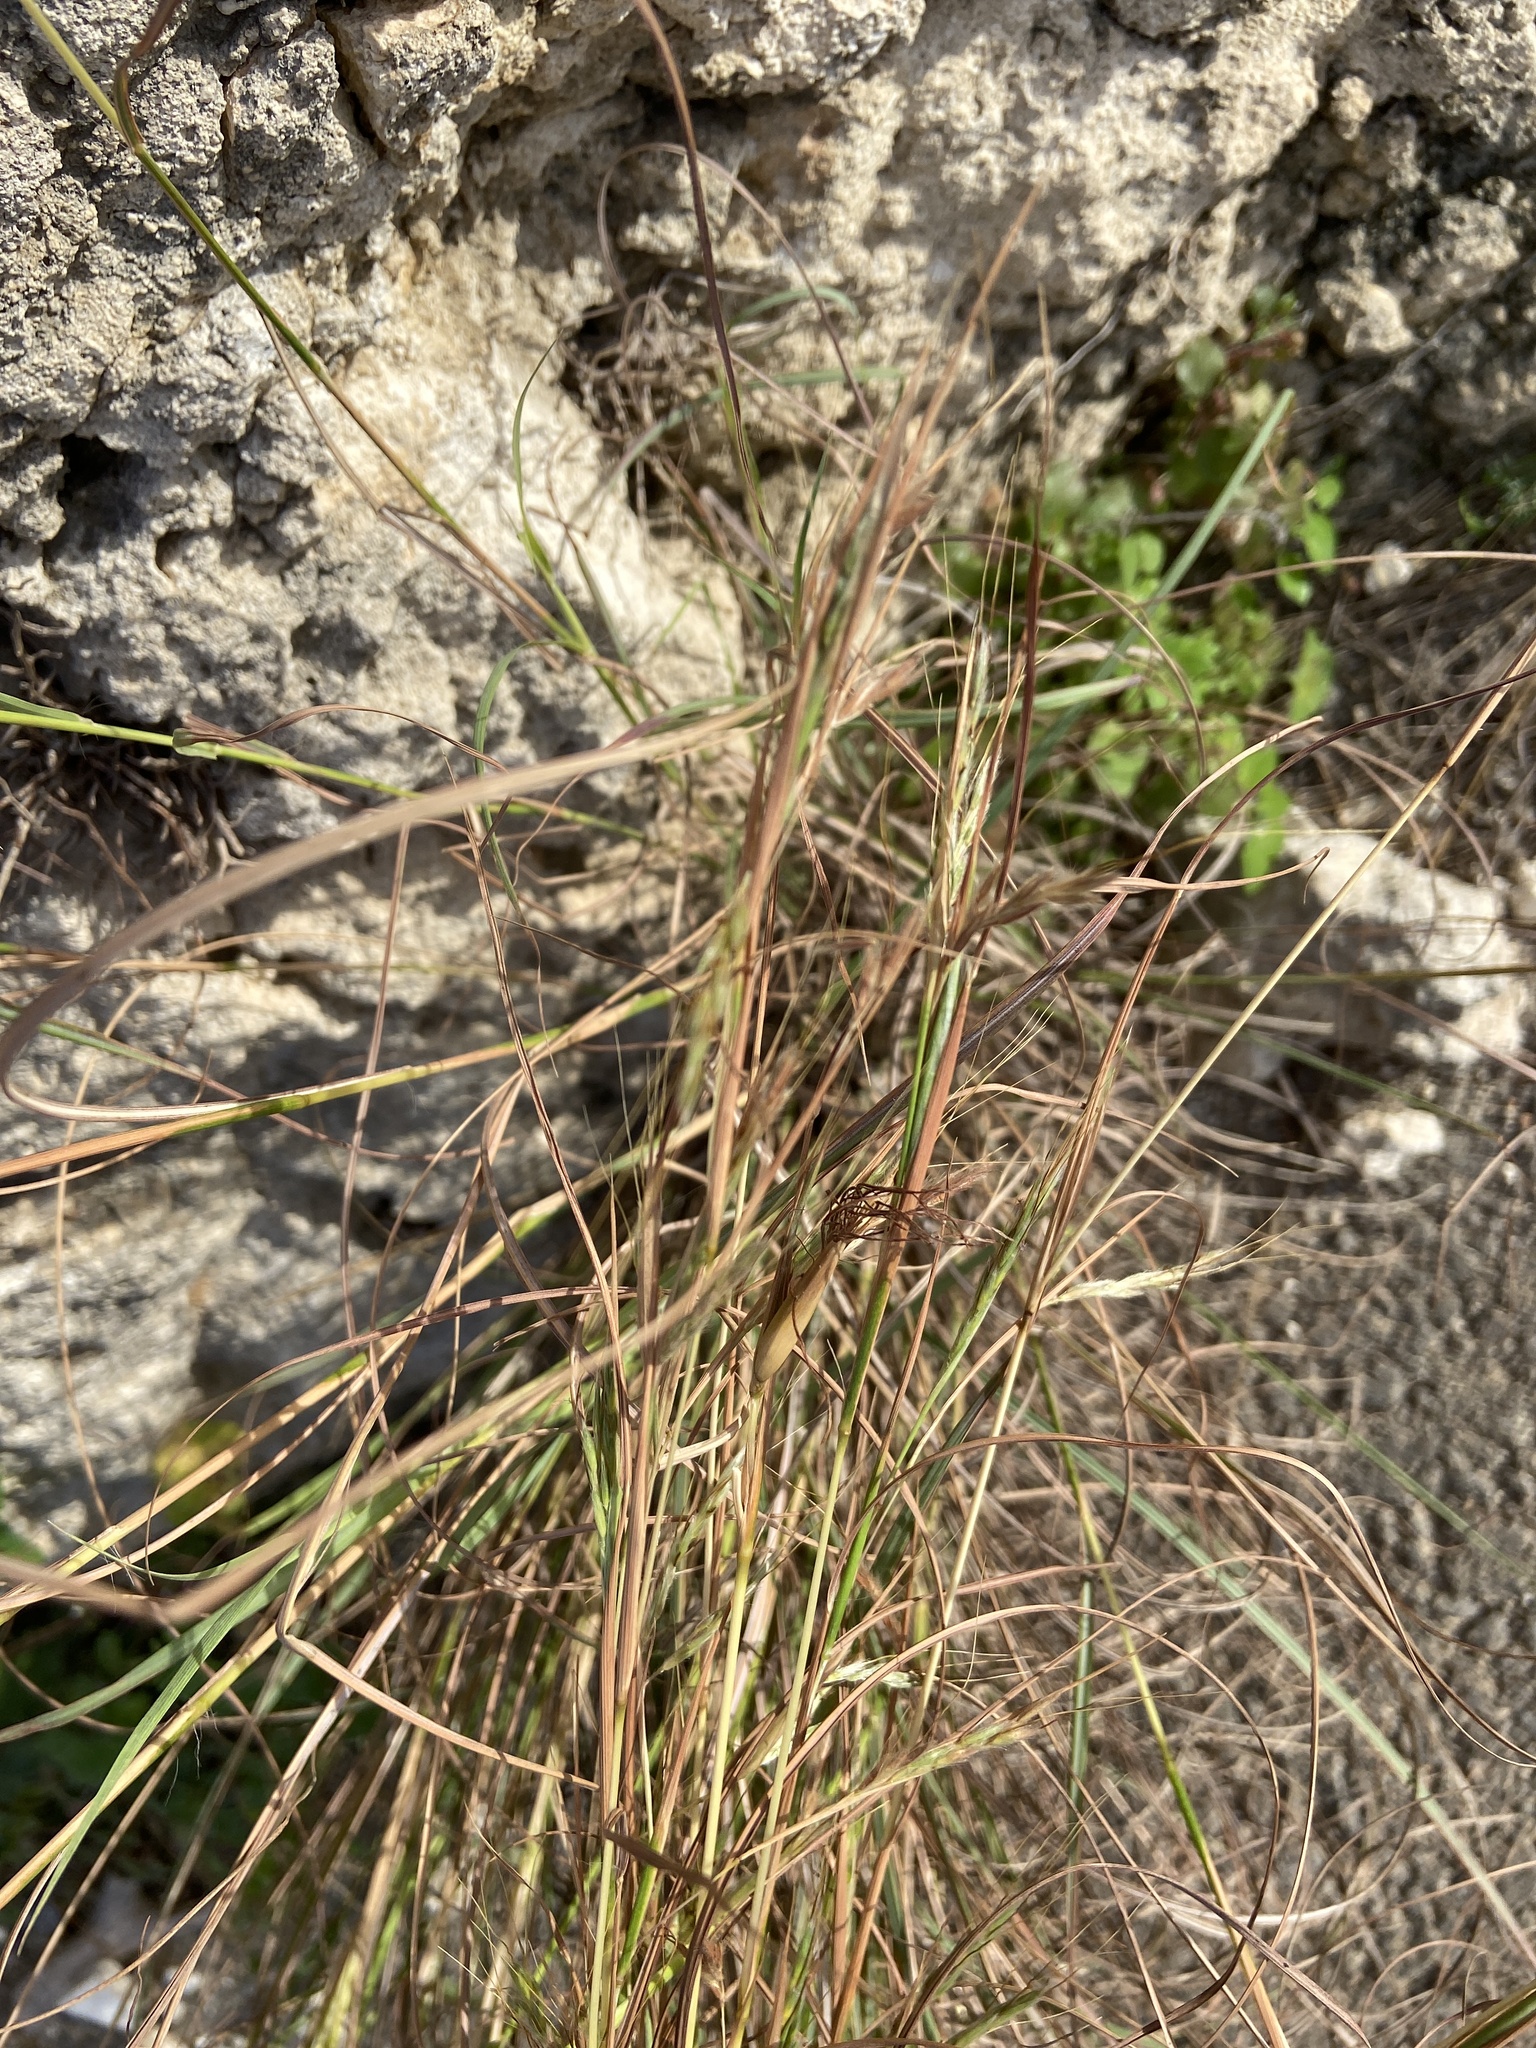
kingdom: Plantae
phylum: Tracheophyta
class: Liliopsida
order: Poales
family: Poaceae
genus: Hyparrhenia
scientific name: Hyparrhenia hirta
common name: Thatching grass
